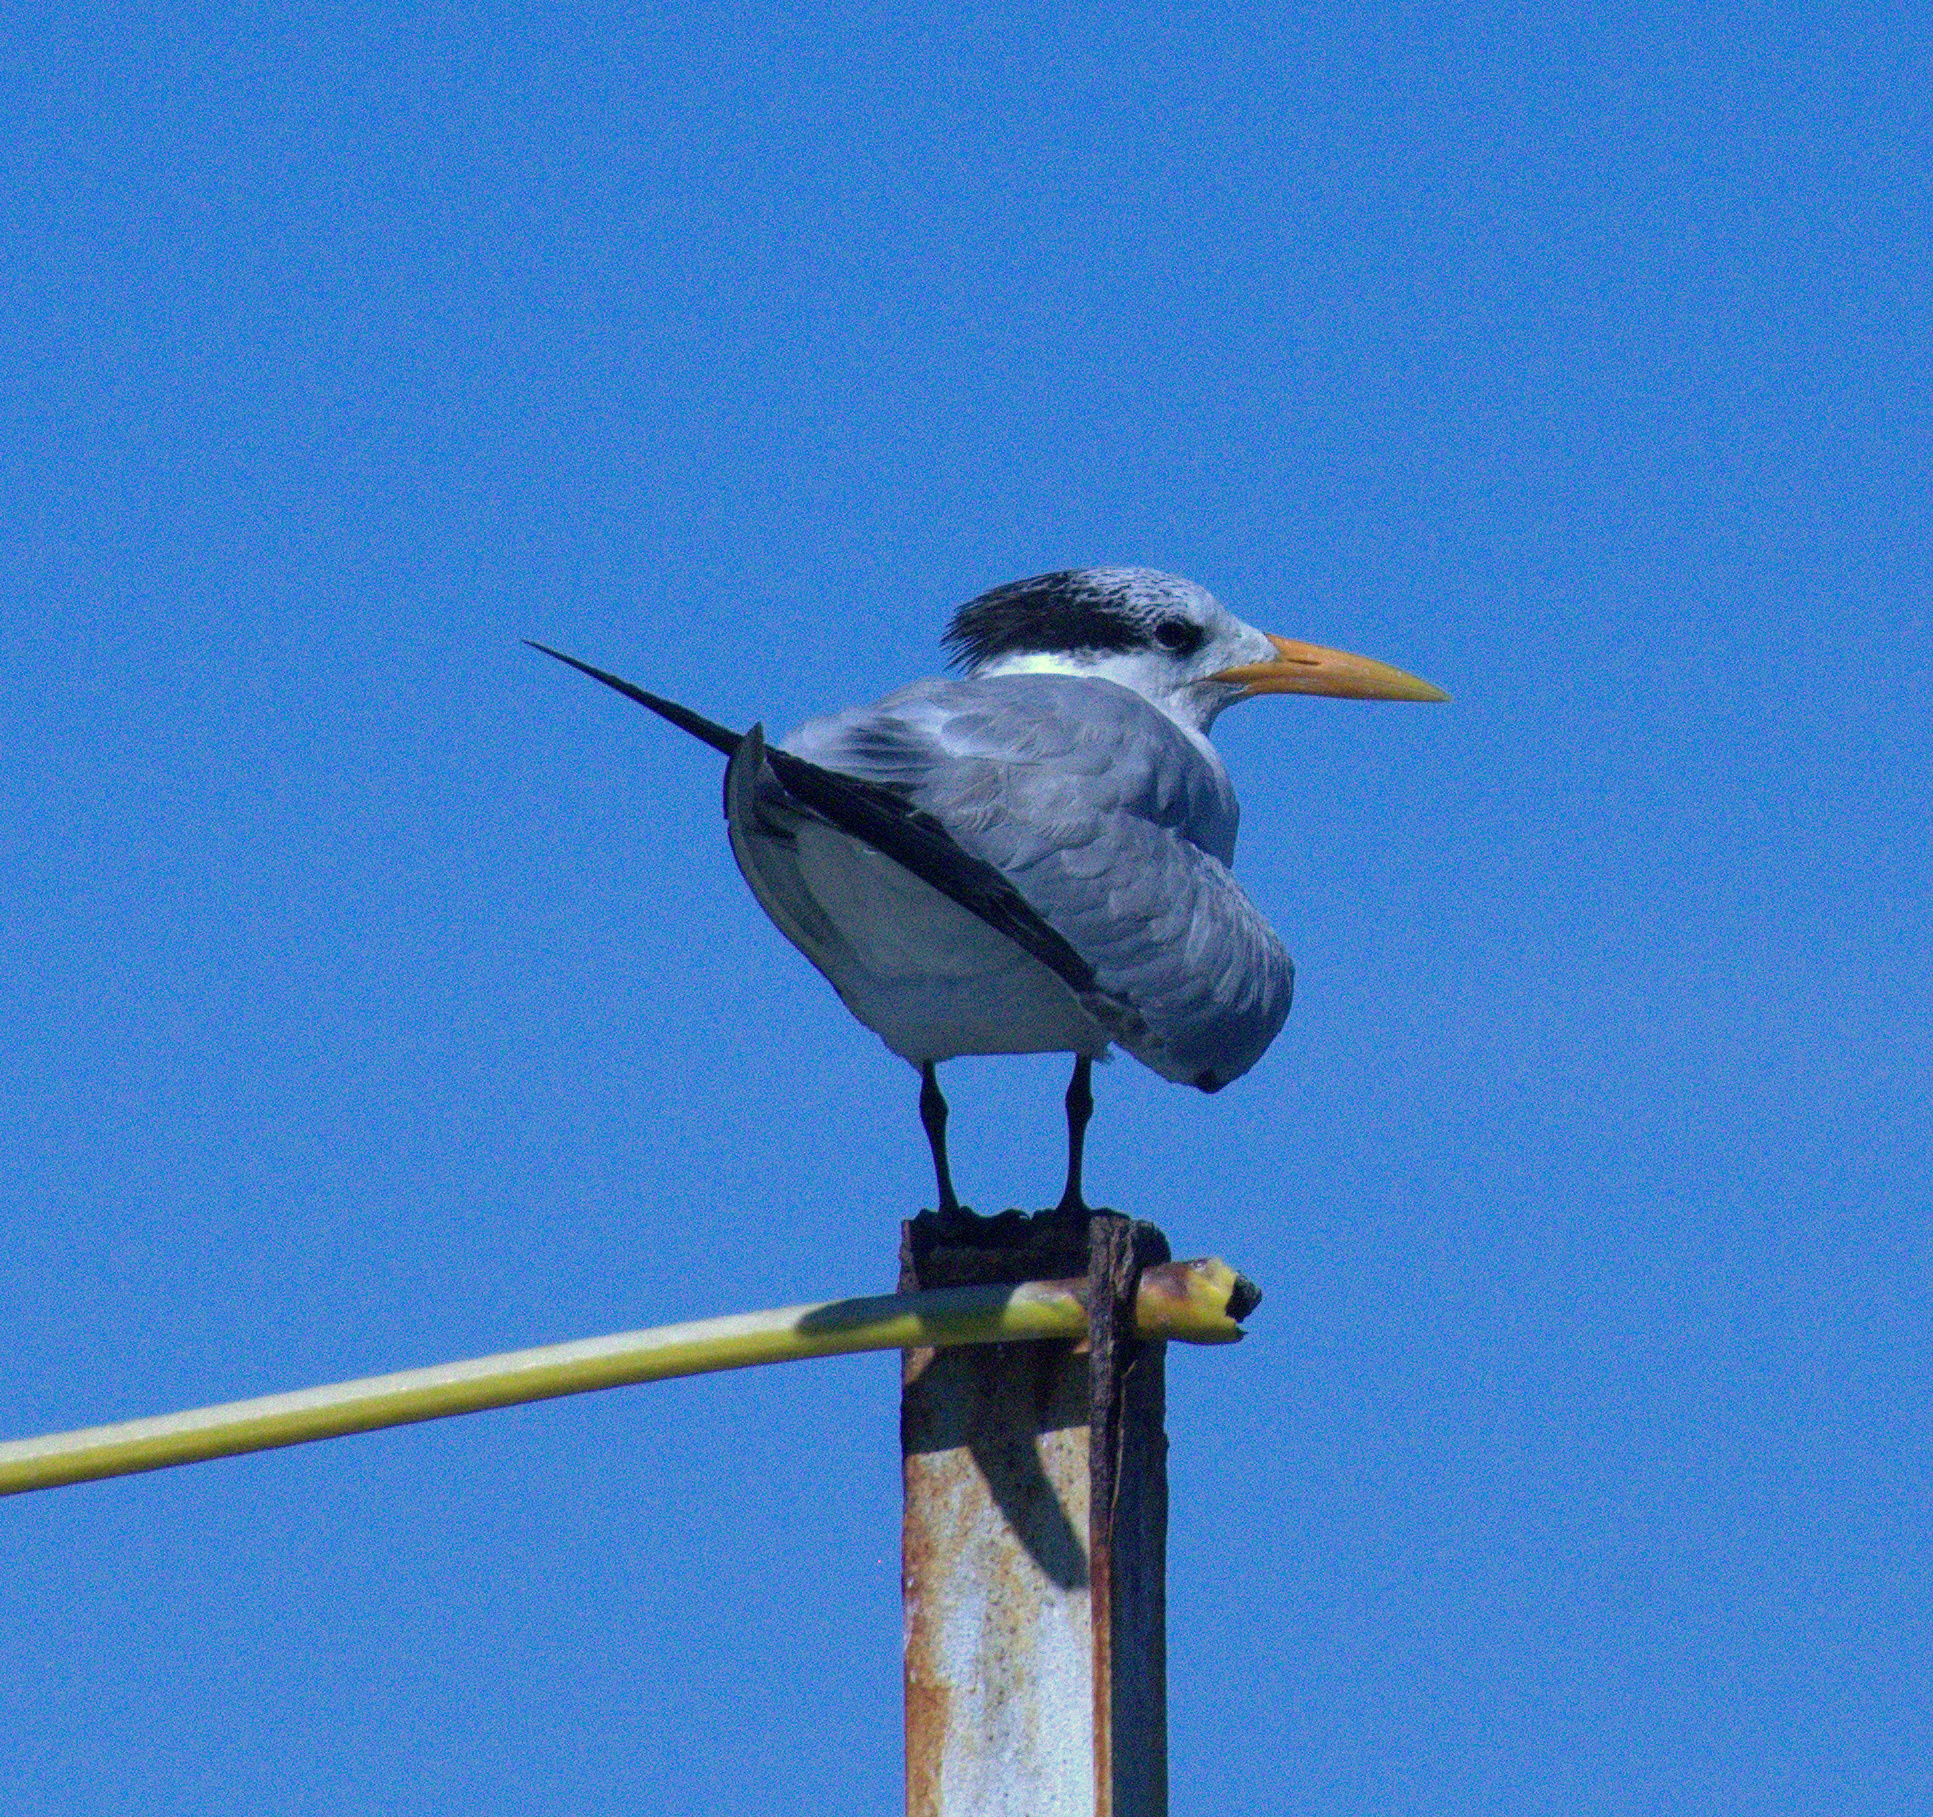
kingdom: Animalia
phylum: Chordata
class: Aves
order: Charadriiformes
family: Laridae
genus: Thalasseus
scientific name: Thalasseus maximus
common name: Royal tern
